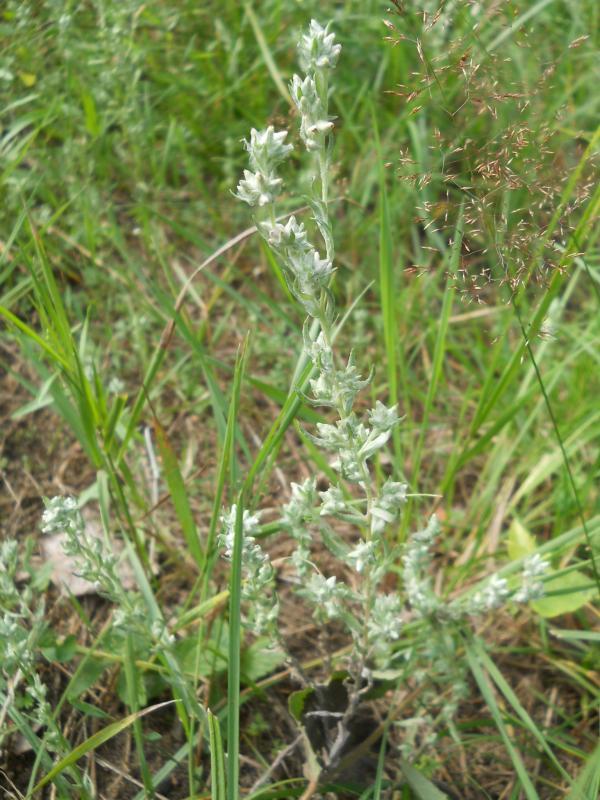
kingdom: Plantae
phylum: Tracheophyta
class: Magnoliopsida
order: Asterales
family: Asteraceae
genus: Filago
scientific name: Filago arvensis
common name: Field cudweed
